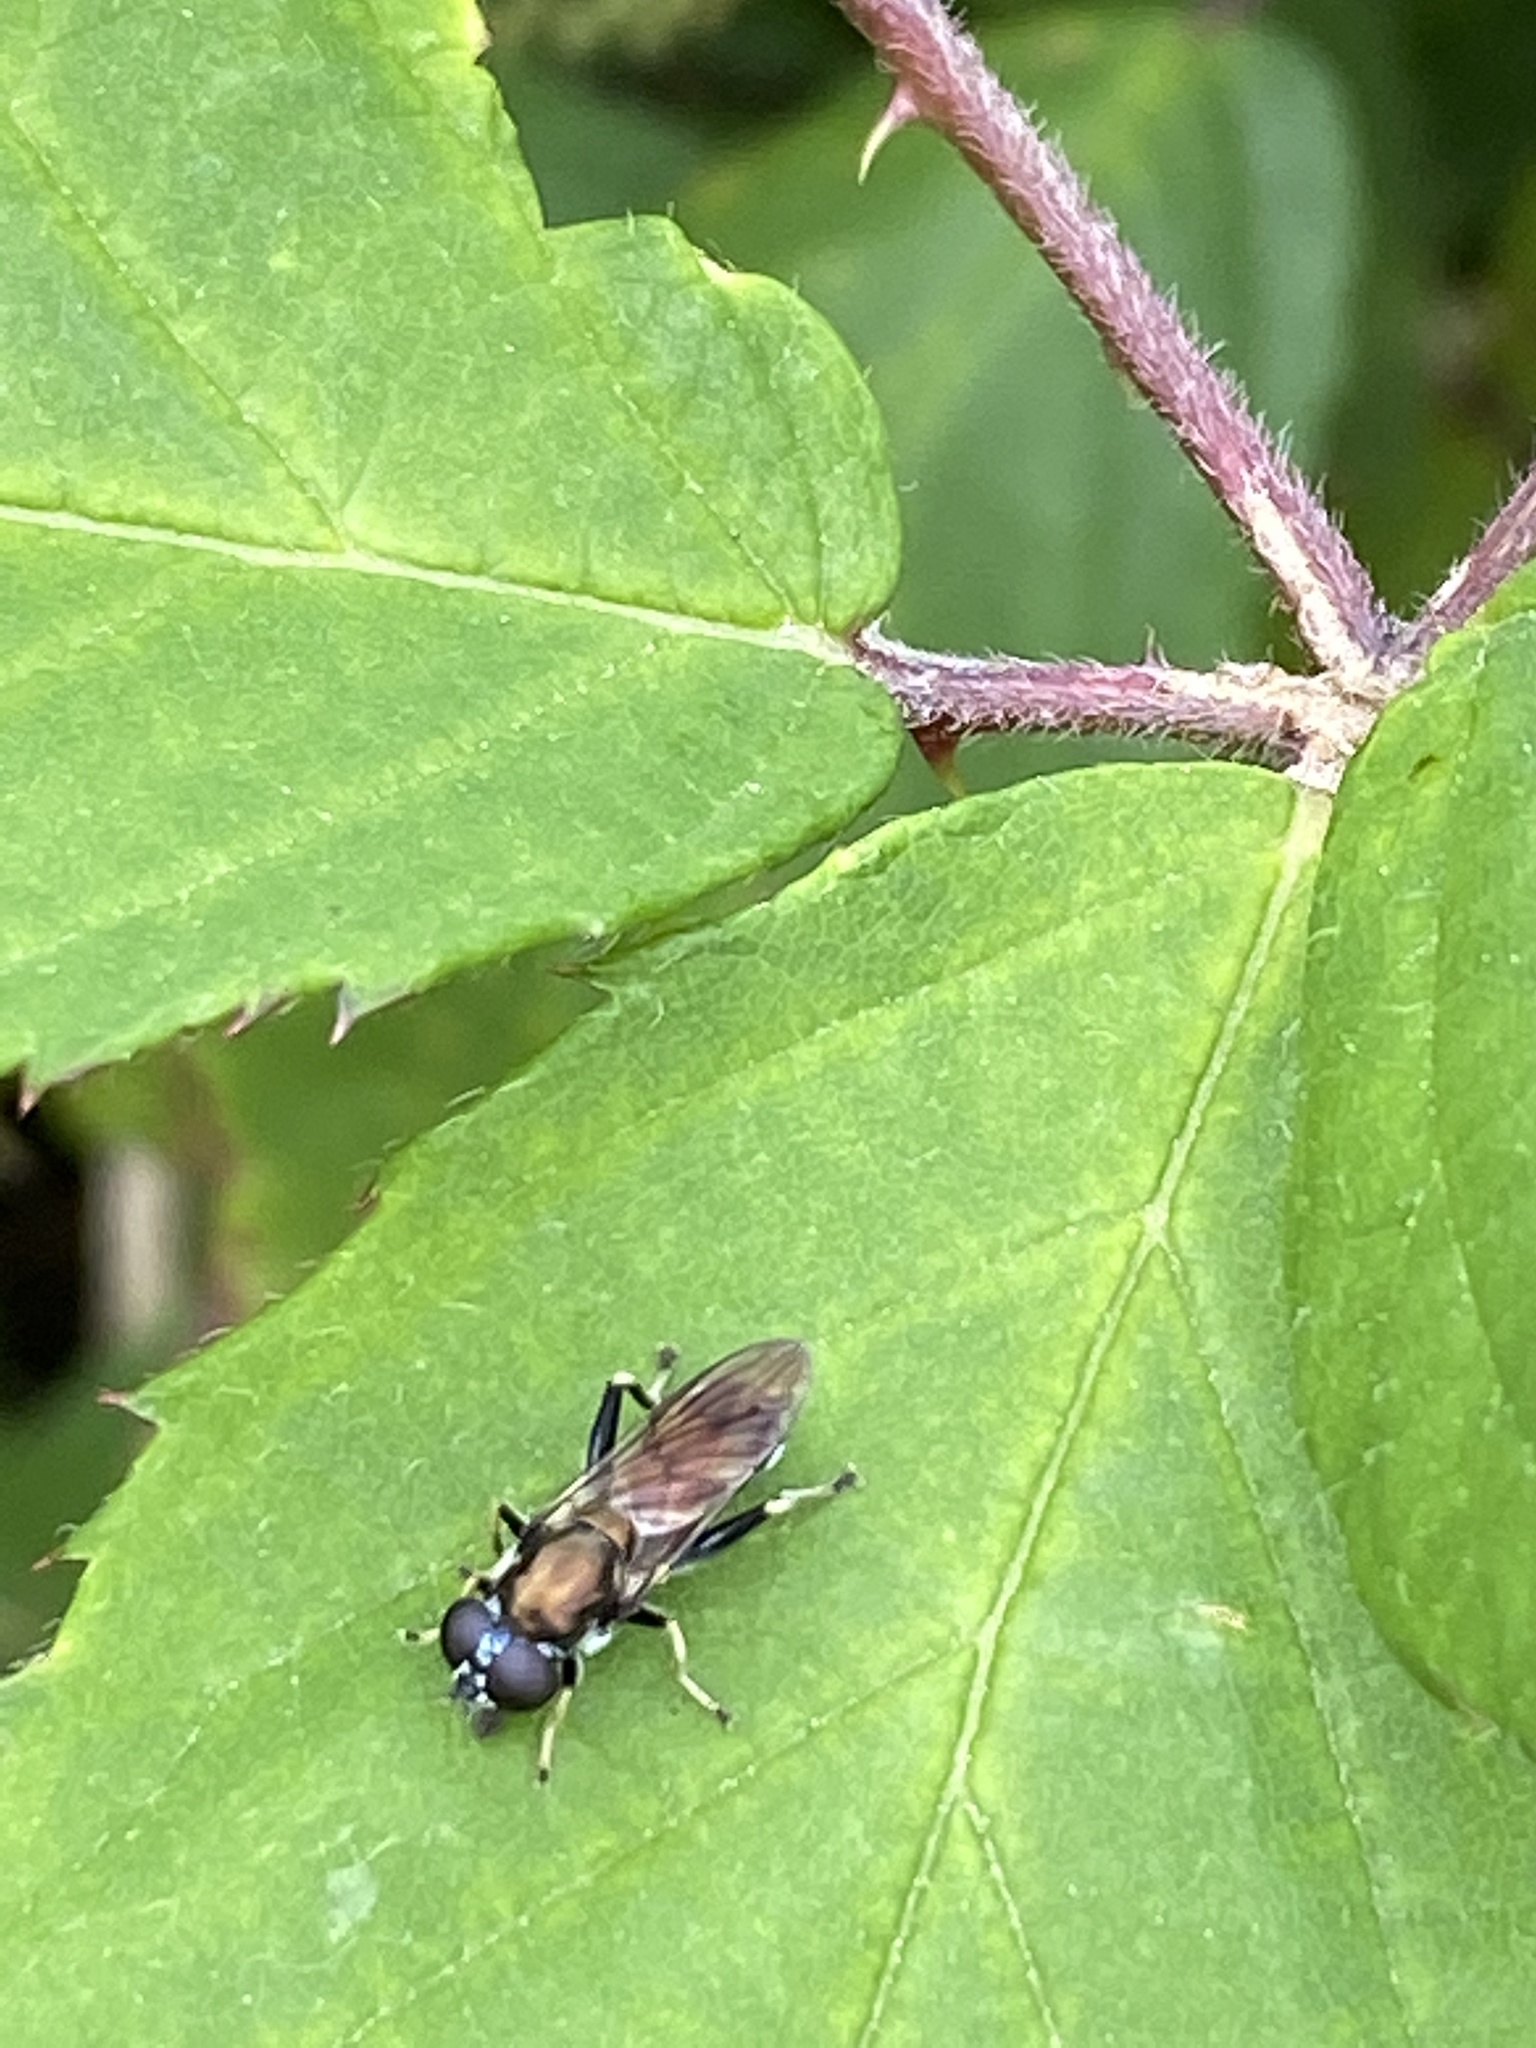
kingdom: Animalia
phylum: Arthropoda
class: Insecta
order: Diptera
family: Syrphidae
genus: Xylota
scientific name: Xylota segnis
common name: Brown-toed forest fly
